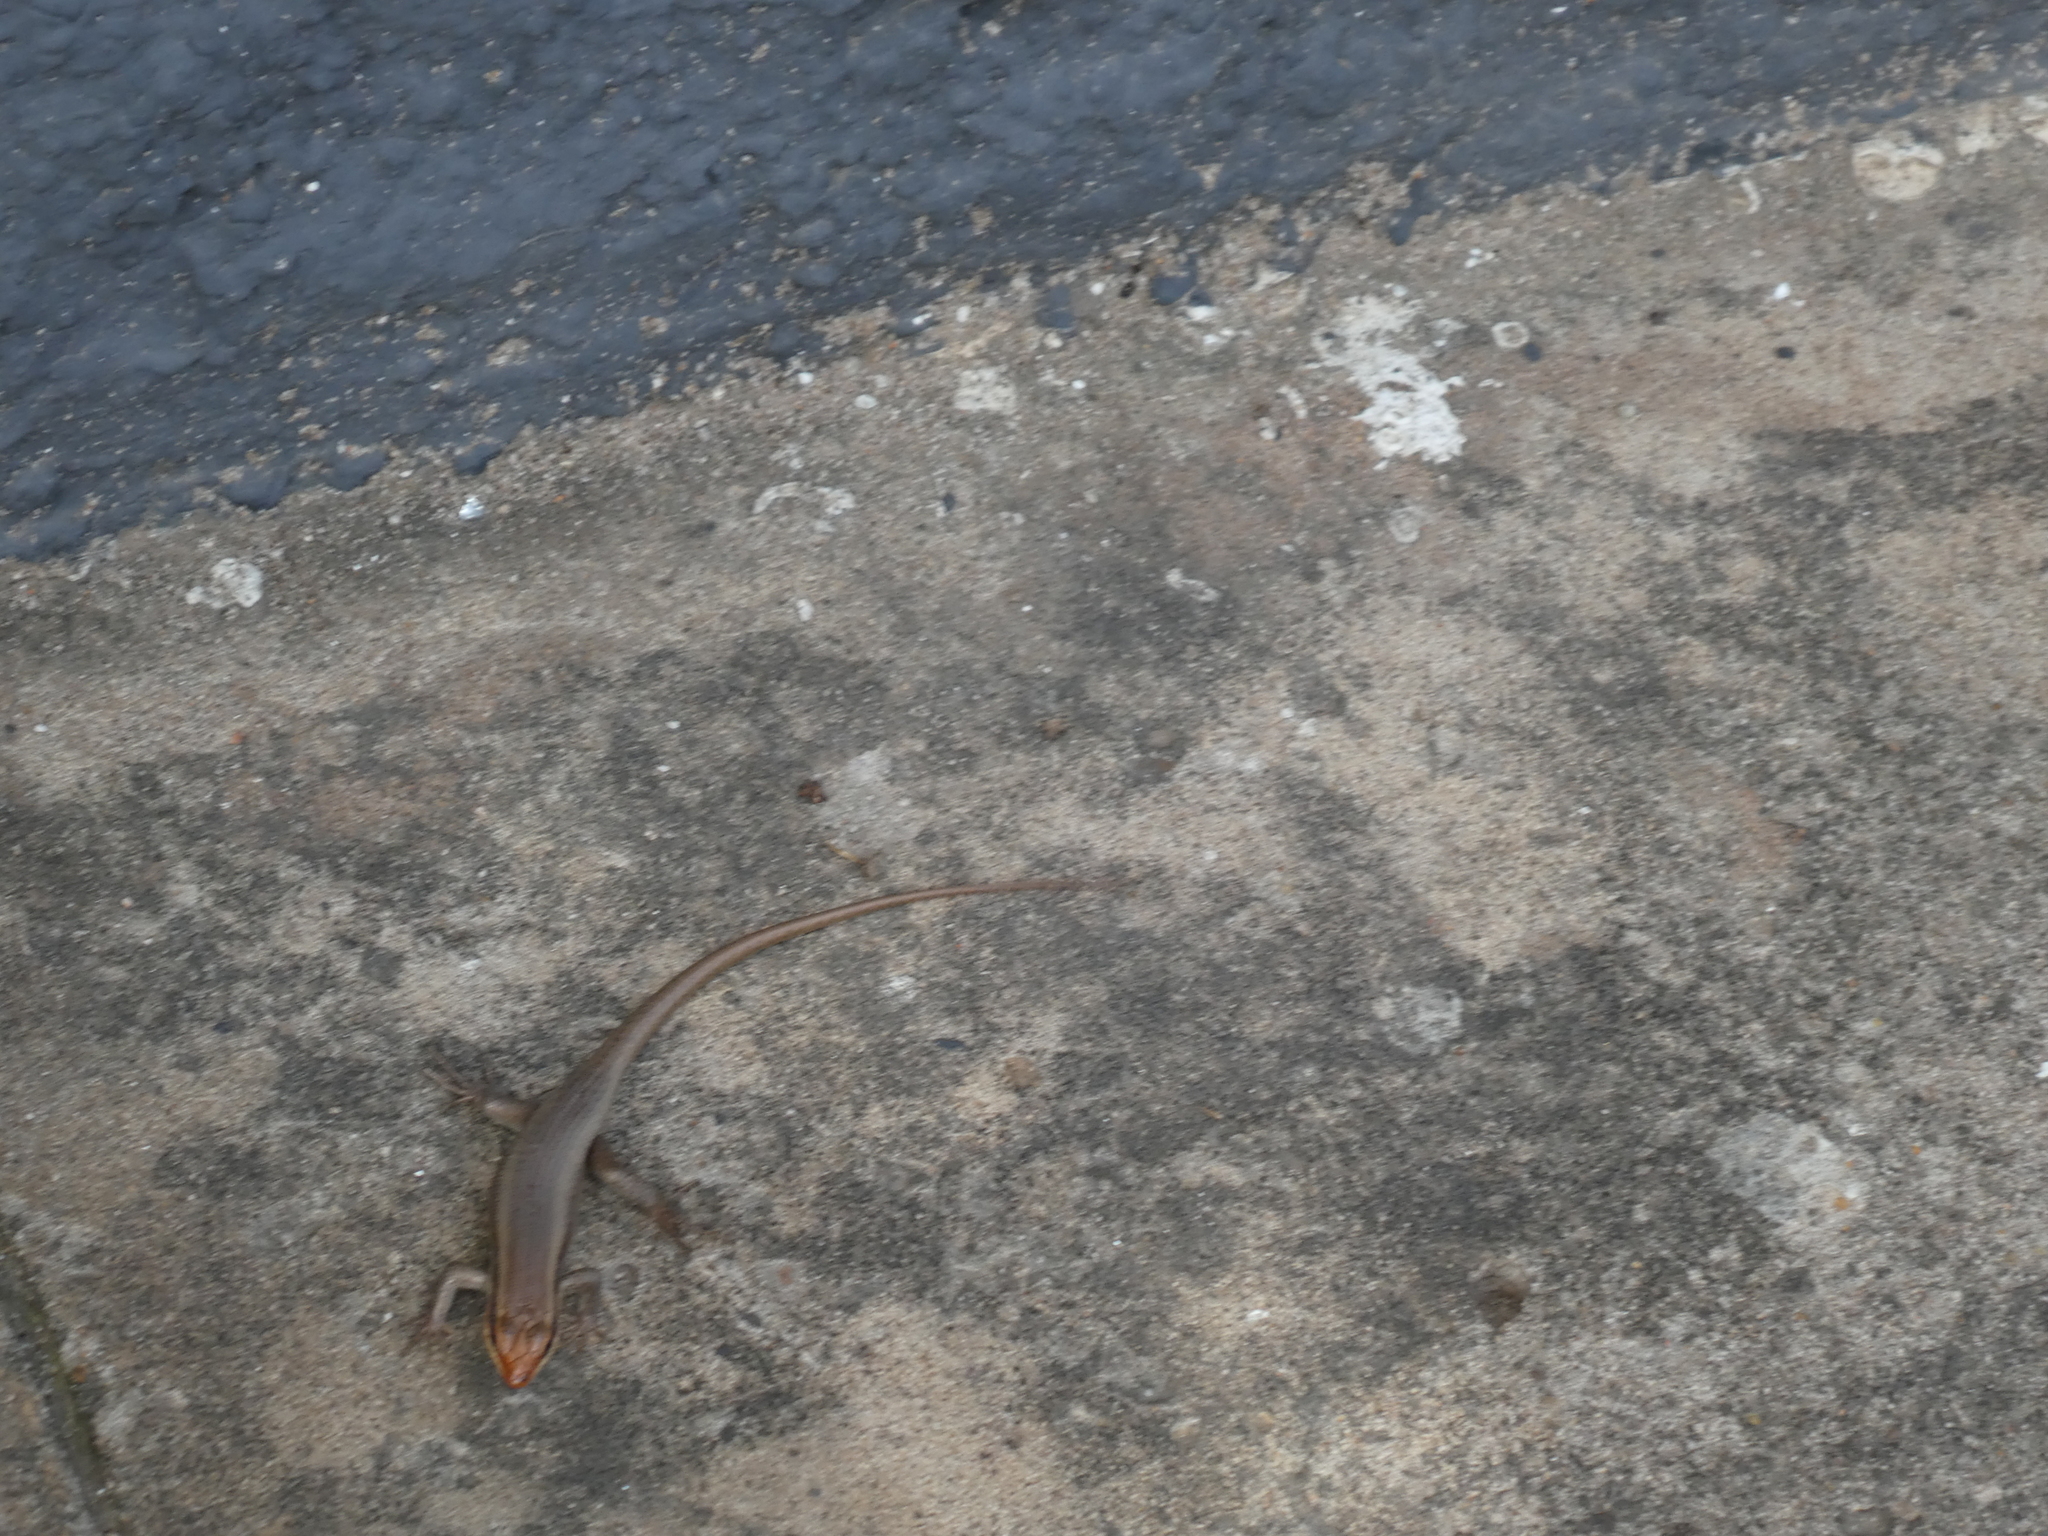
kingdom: Animalia
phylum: Chordata
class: Squamata
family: Scincidae
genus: Trachylepis
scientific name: Trachylepis wahlbergii
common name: Wahlberg’s striped skink
